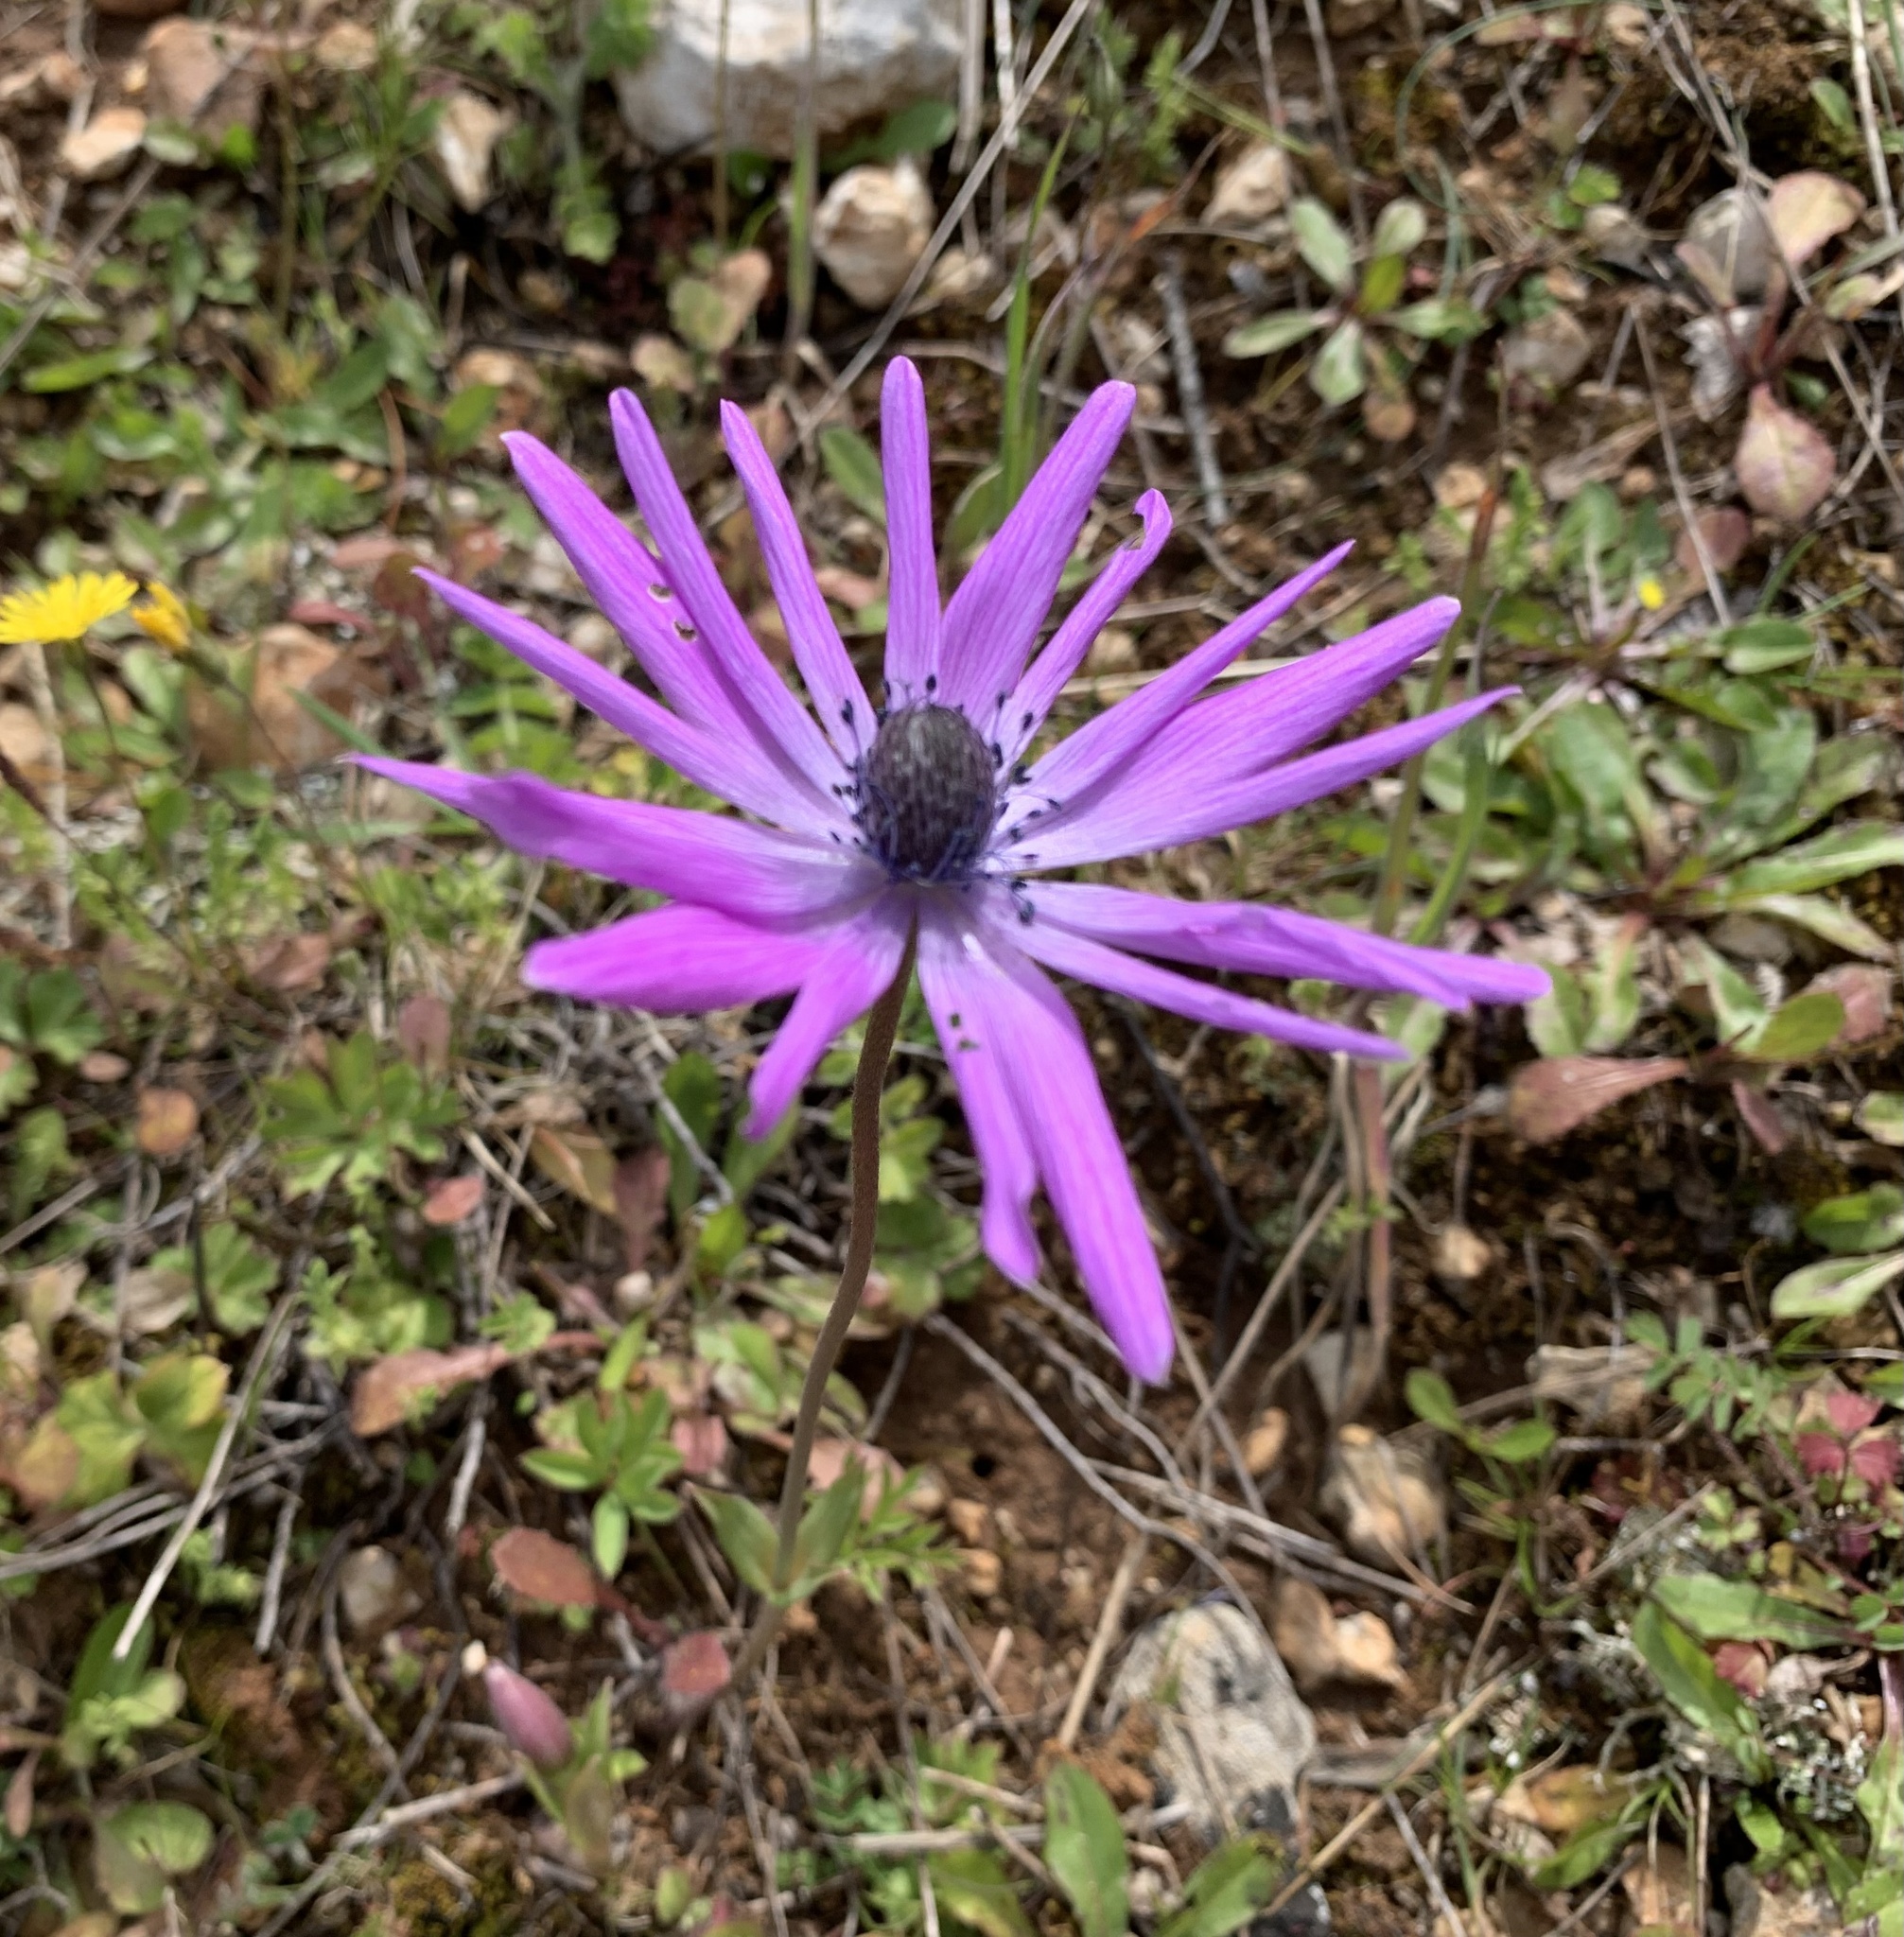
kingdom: Plantae
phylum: Tracheophyta
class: Magnoliopsida
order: Ranunculales
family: Ranunculaceae
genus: Anemone
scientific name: Anemone hortensis
